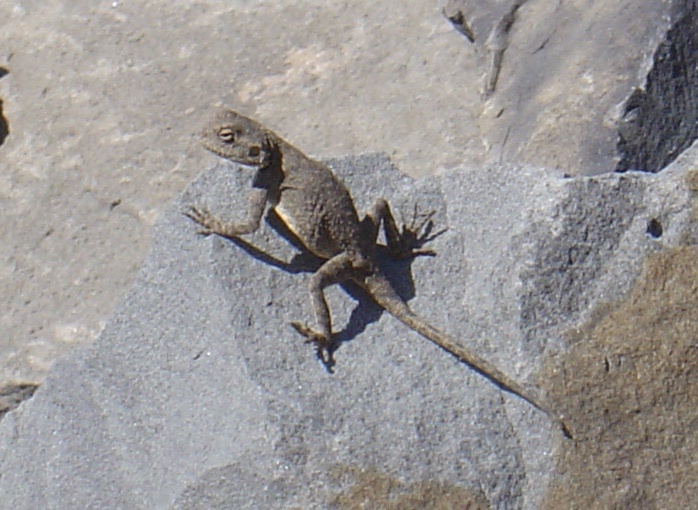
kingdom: Animalia
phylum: Chordata
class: Squamata
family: Agamidae
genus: Agama
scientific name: Agama atra
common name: Southern african rock agama
